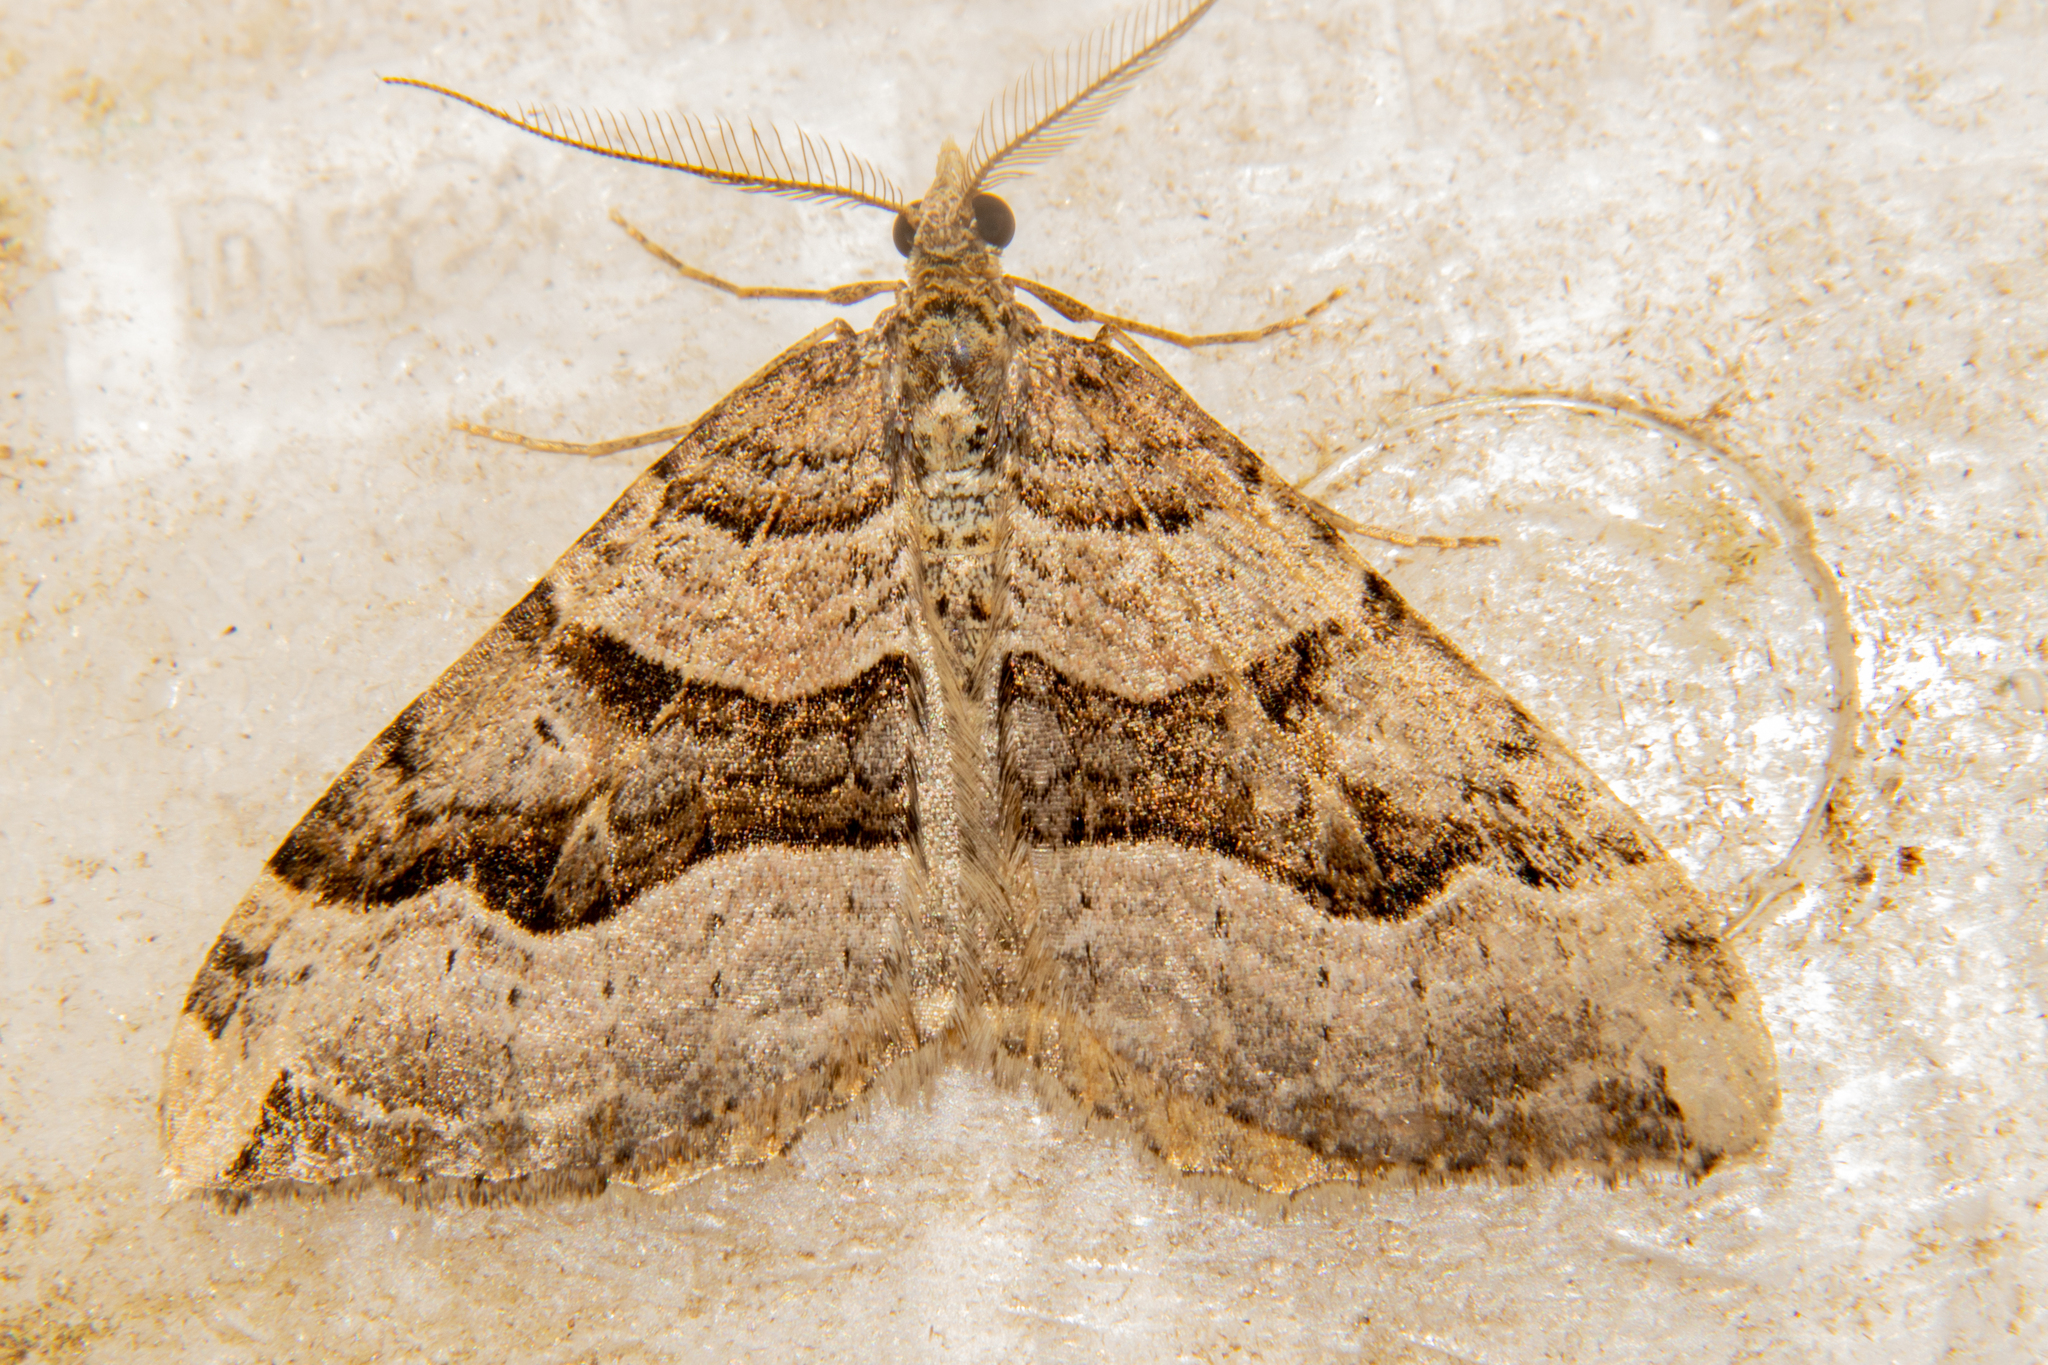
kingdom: Animalia
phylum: Arthropoda
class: Insecta
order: Lepidoptera
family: Geometridae
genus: Xanthorhoe
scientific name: Xanthorhoe semifissata
